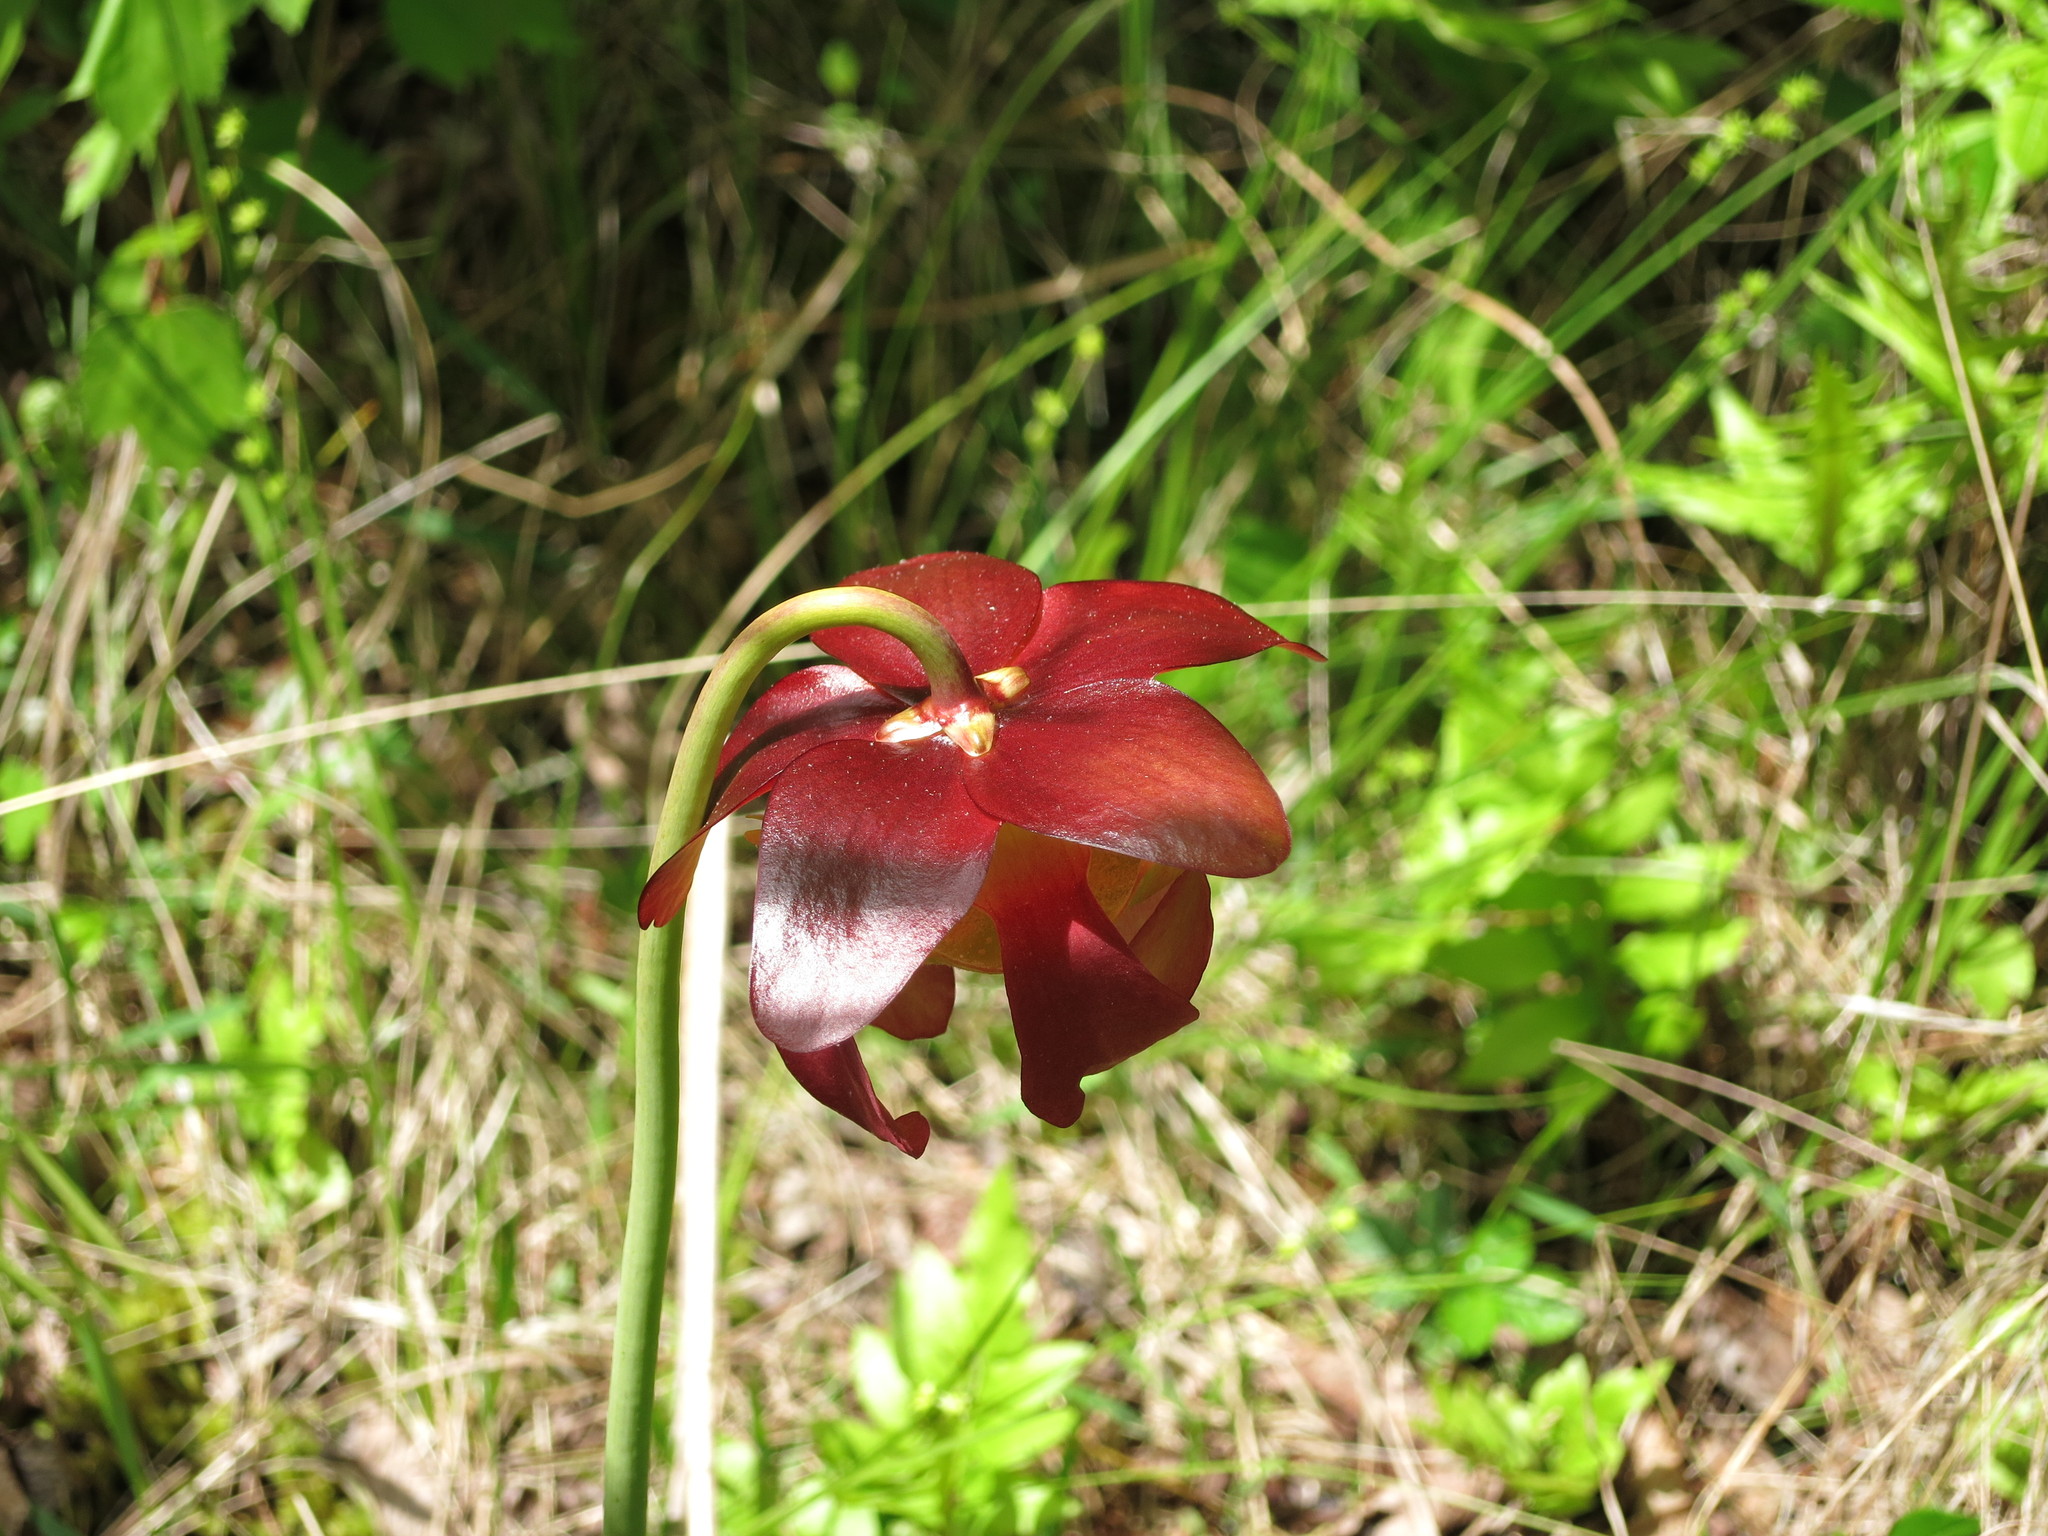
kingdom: Plantae
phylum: Tracheophyta
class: Magnoliopsida
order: Ericales
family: Sarraceniaceae
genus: Sarracenia
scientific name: Sarracenia purpurea
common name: Pitcherplant
